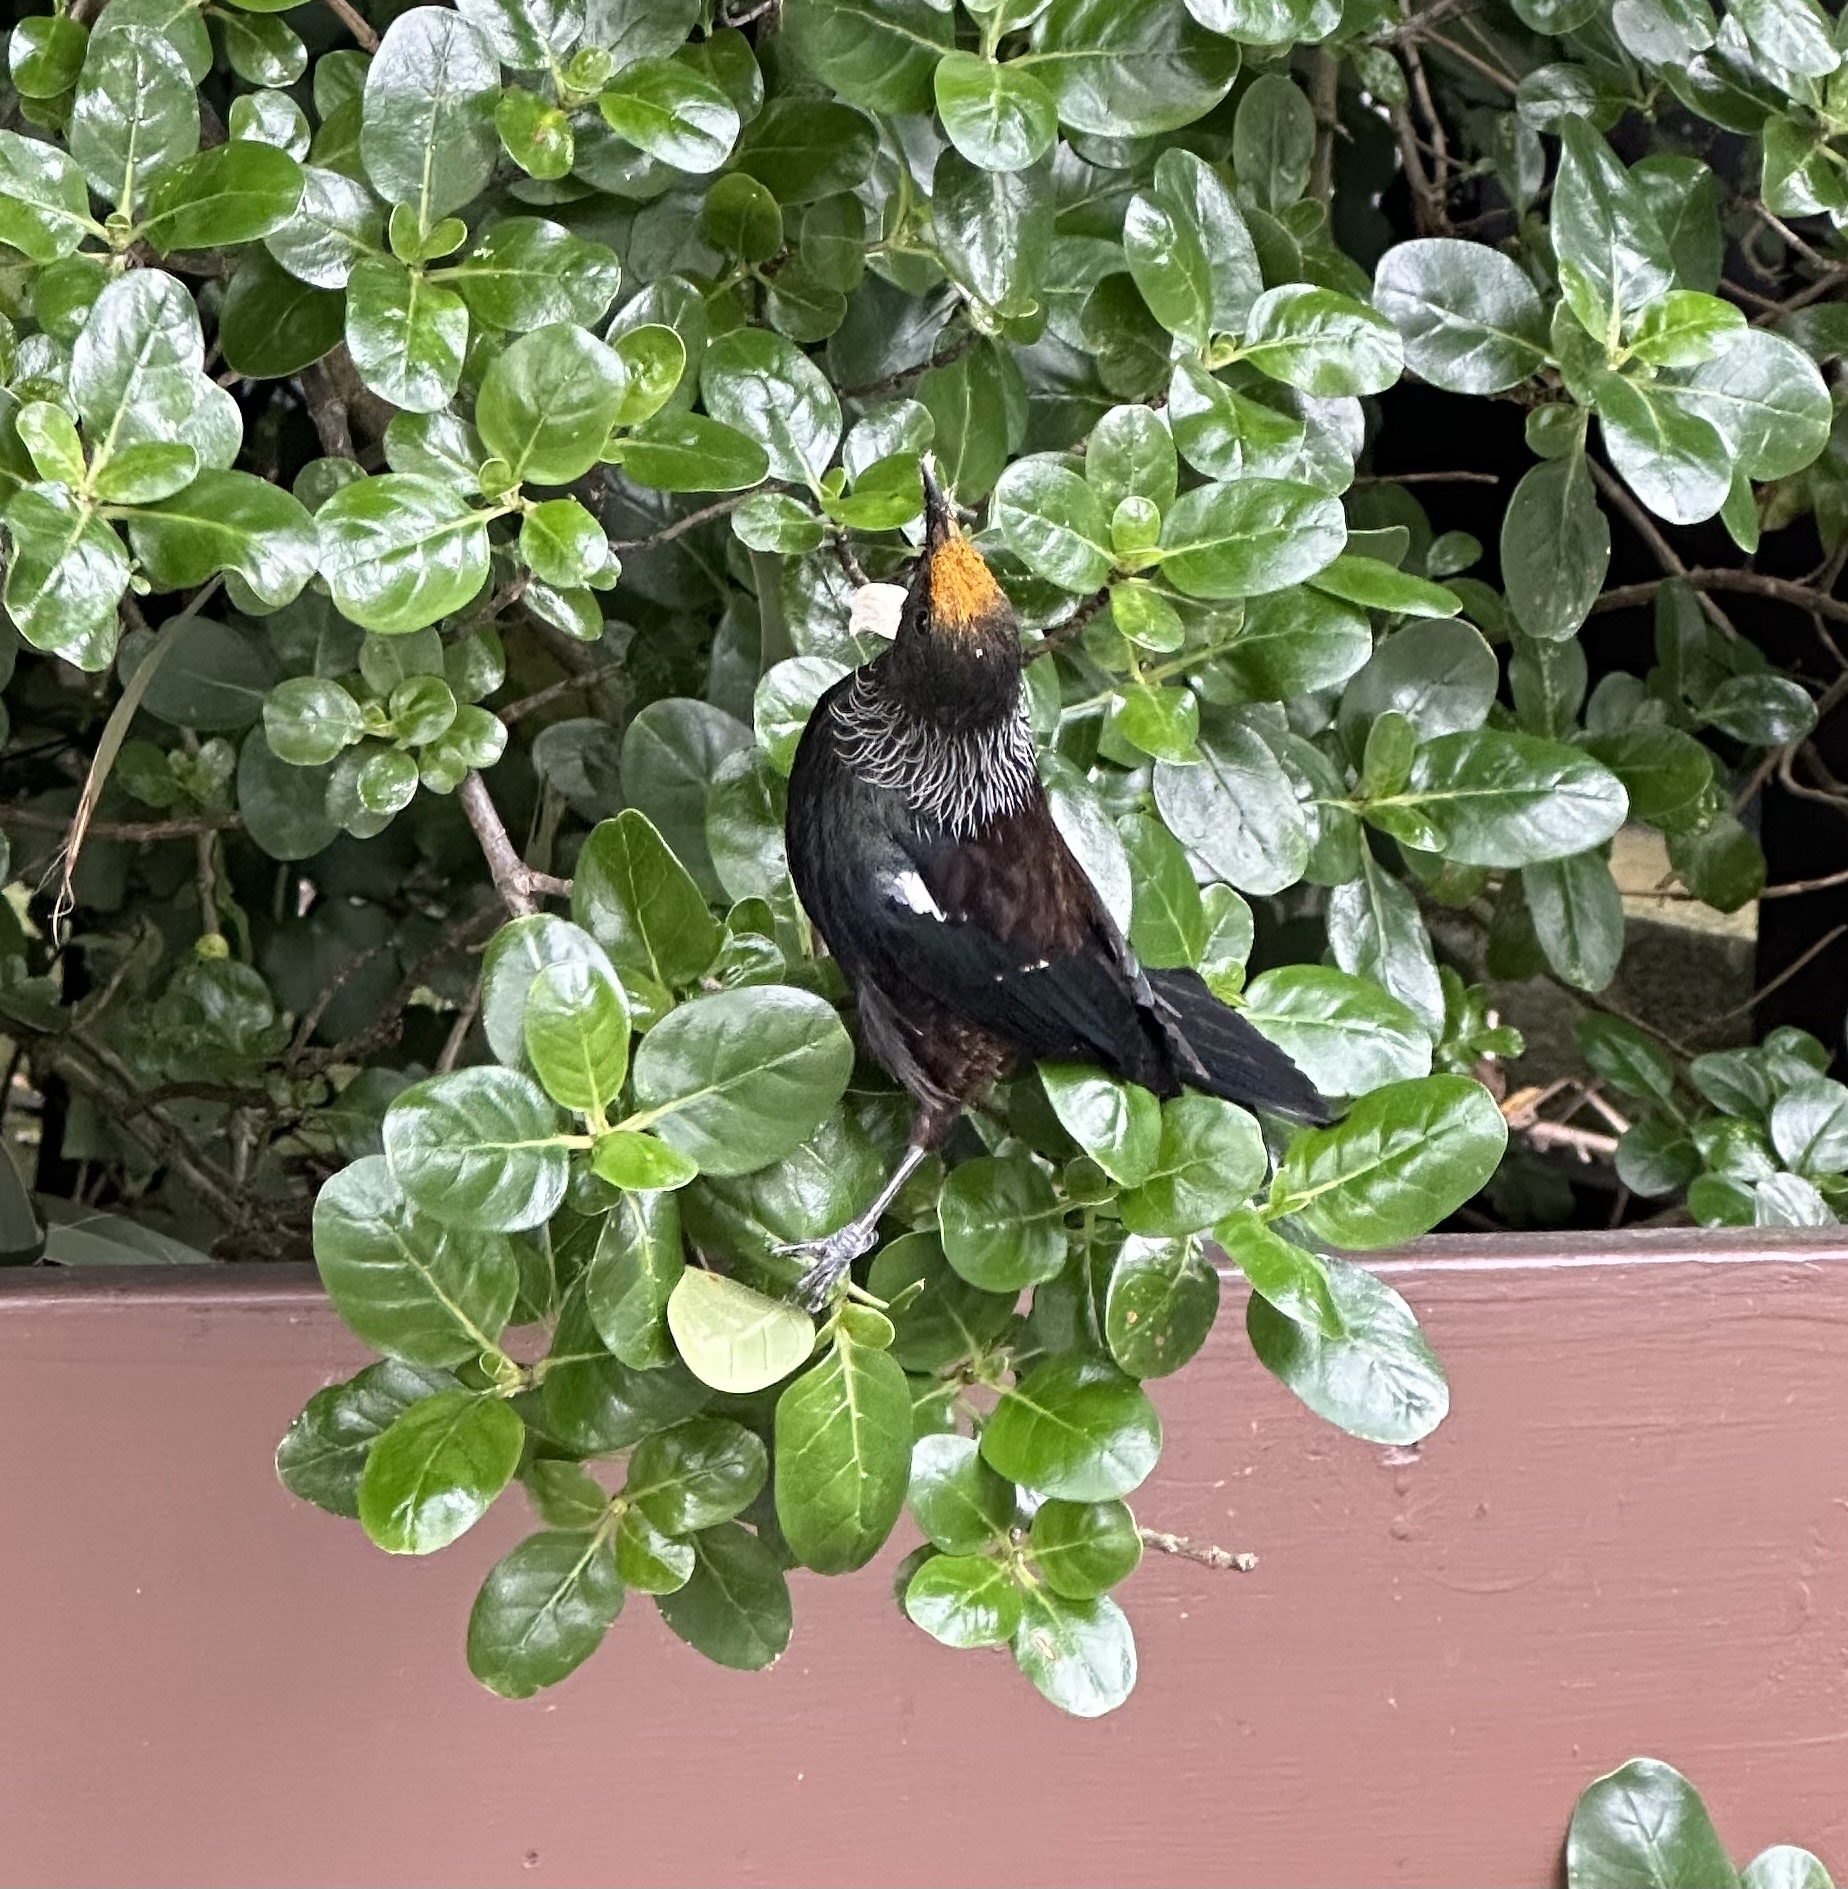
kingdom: Animalia
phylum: Chordata
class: Aves
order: Passeriformes
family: Meliphagidae
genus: Prosthemadera
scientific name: Prosthemadera novaeseelandiae
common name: Tui
